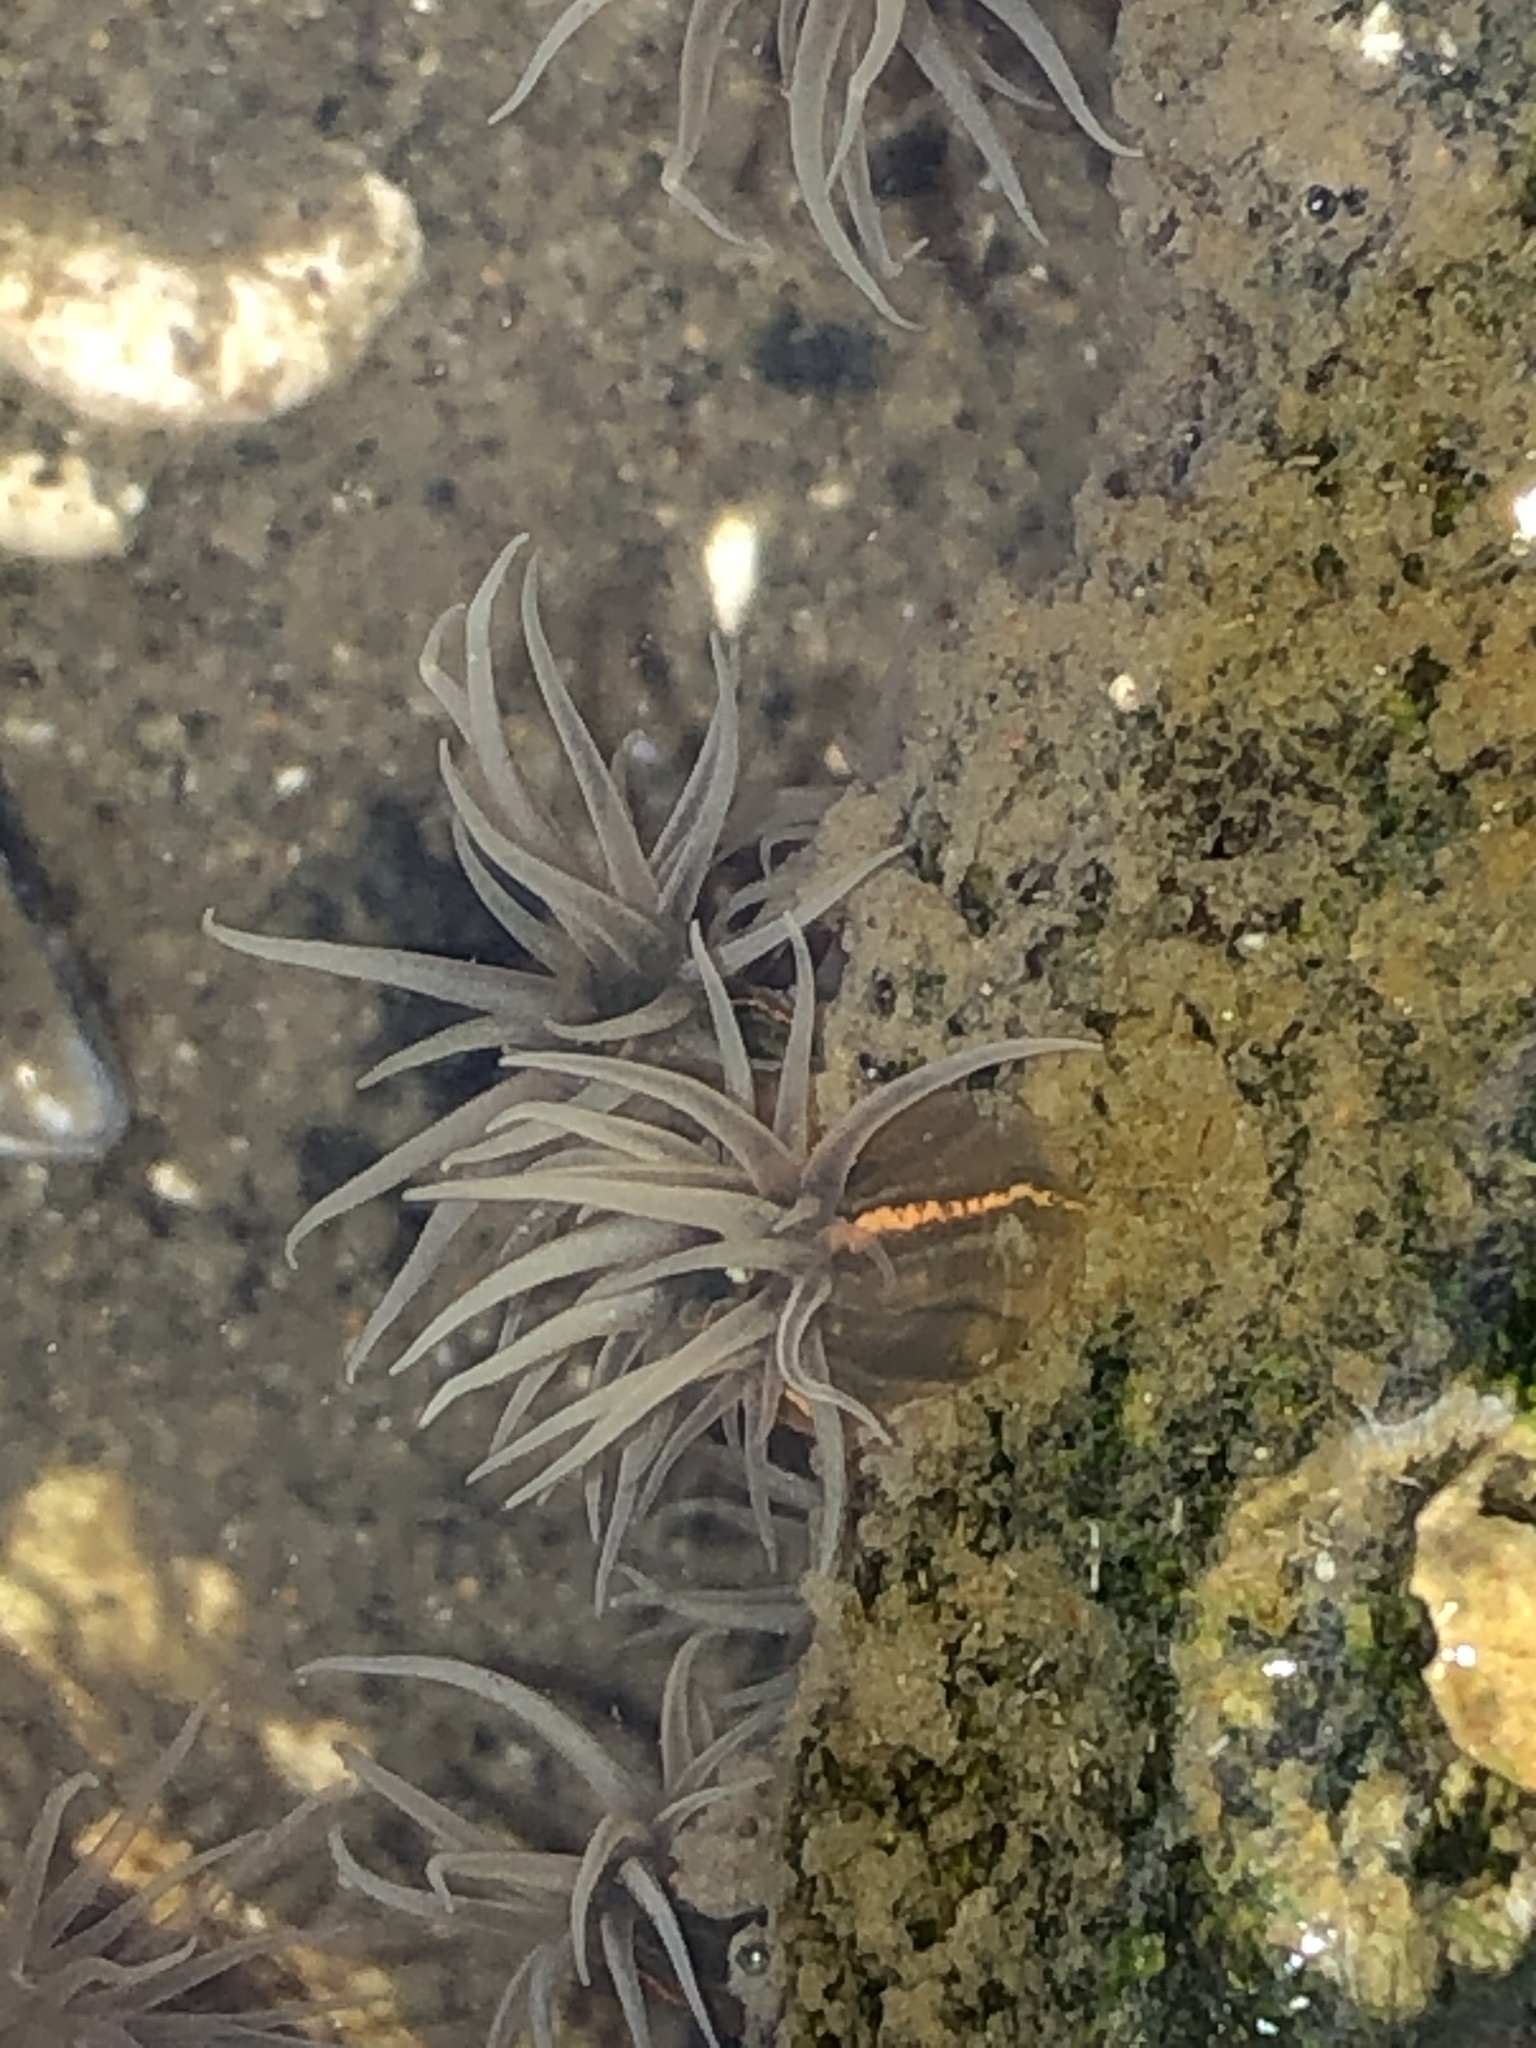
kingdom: Animalia
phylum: Cnidaria
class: Anthozoa
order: Actiniaria
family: Diadumenidae
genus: Diadumene
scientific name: Diadumene lineata
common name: Orange-striped anemone
